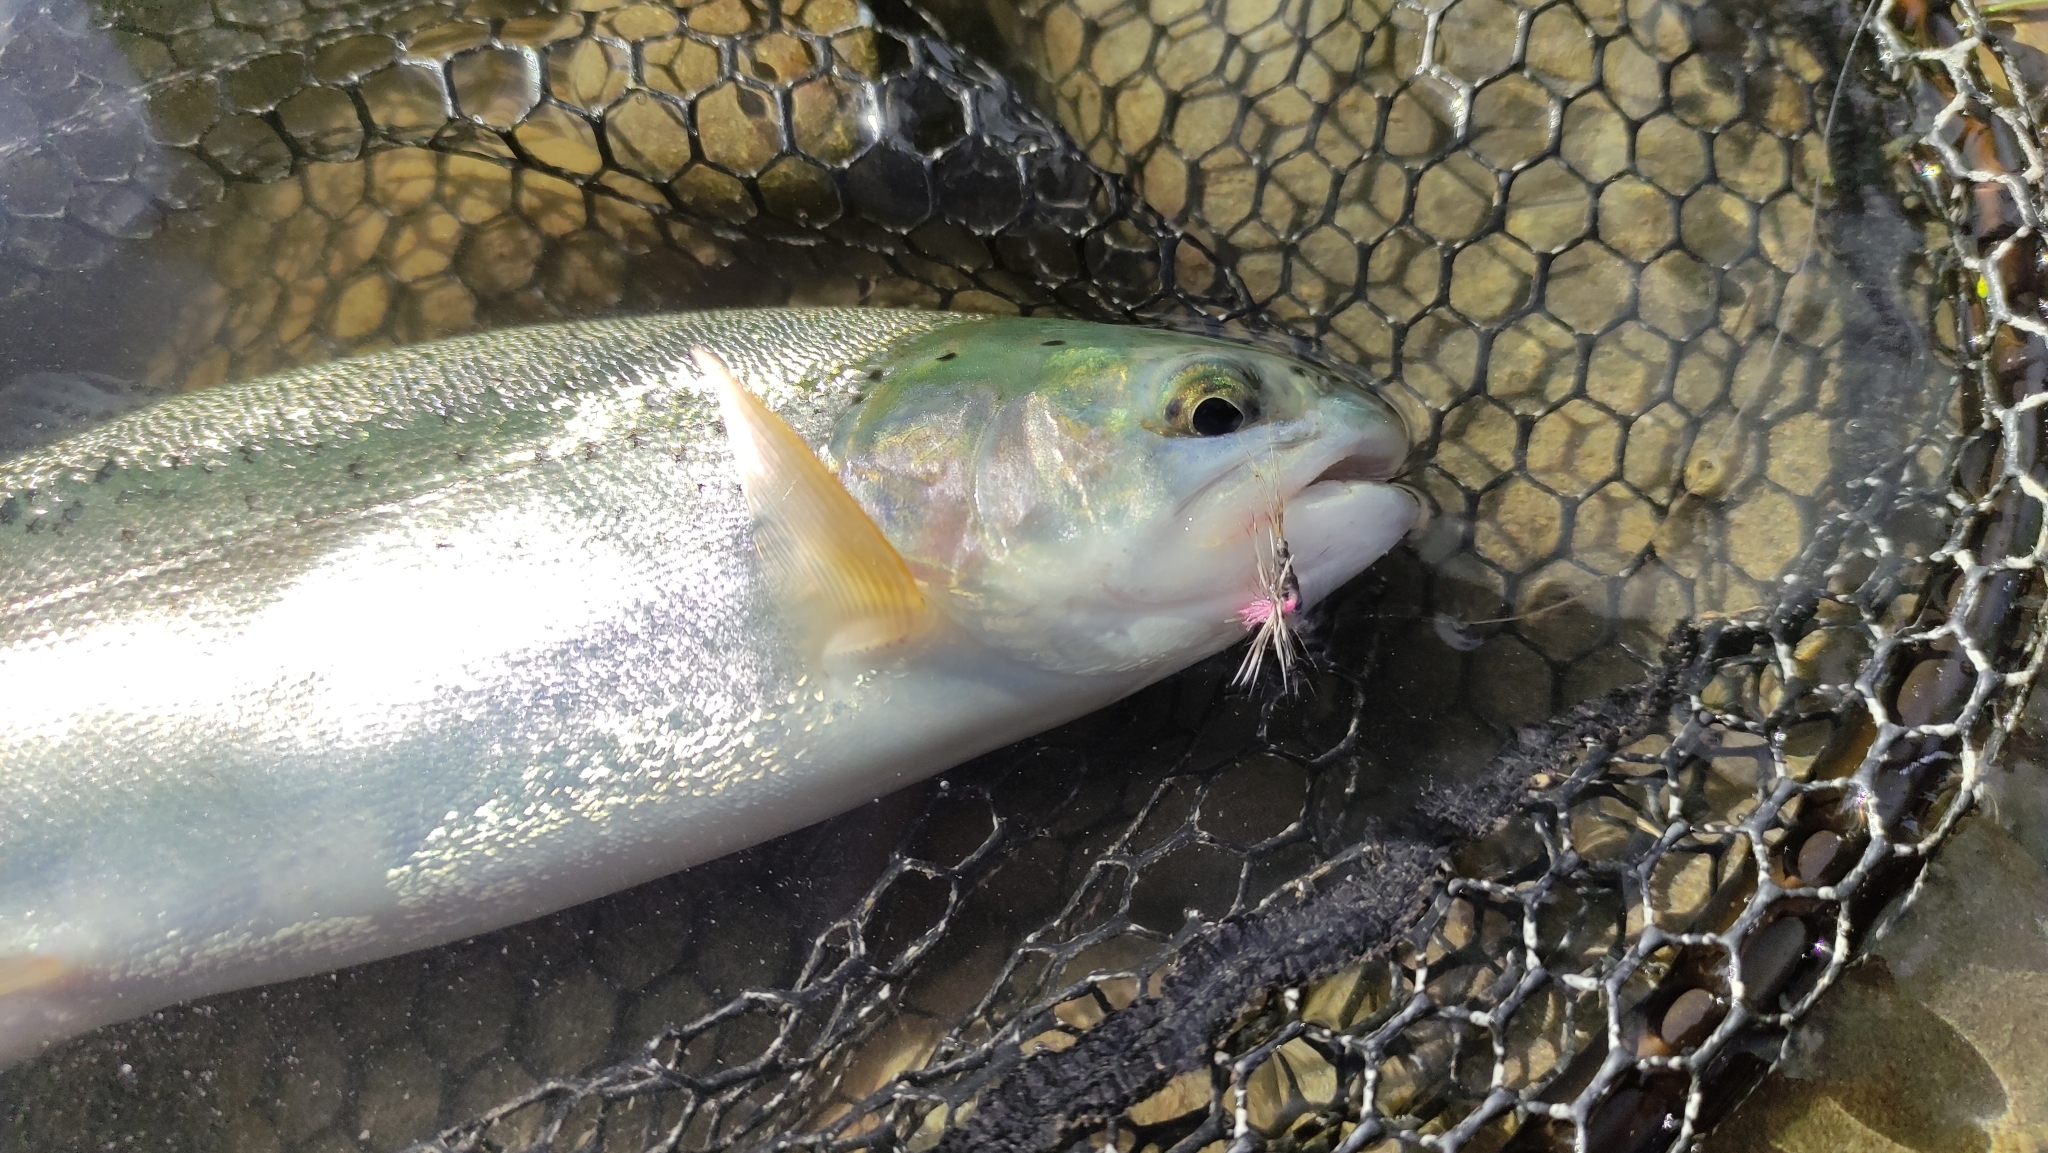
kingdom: Animalia
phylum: Chordata
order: Salmoniformes
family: Salmonidae
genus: Oncorhynchus
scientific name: Oncorhynchus mykiss
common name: Rainbow trout
